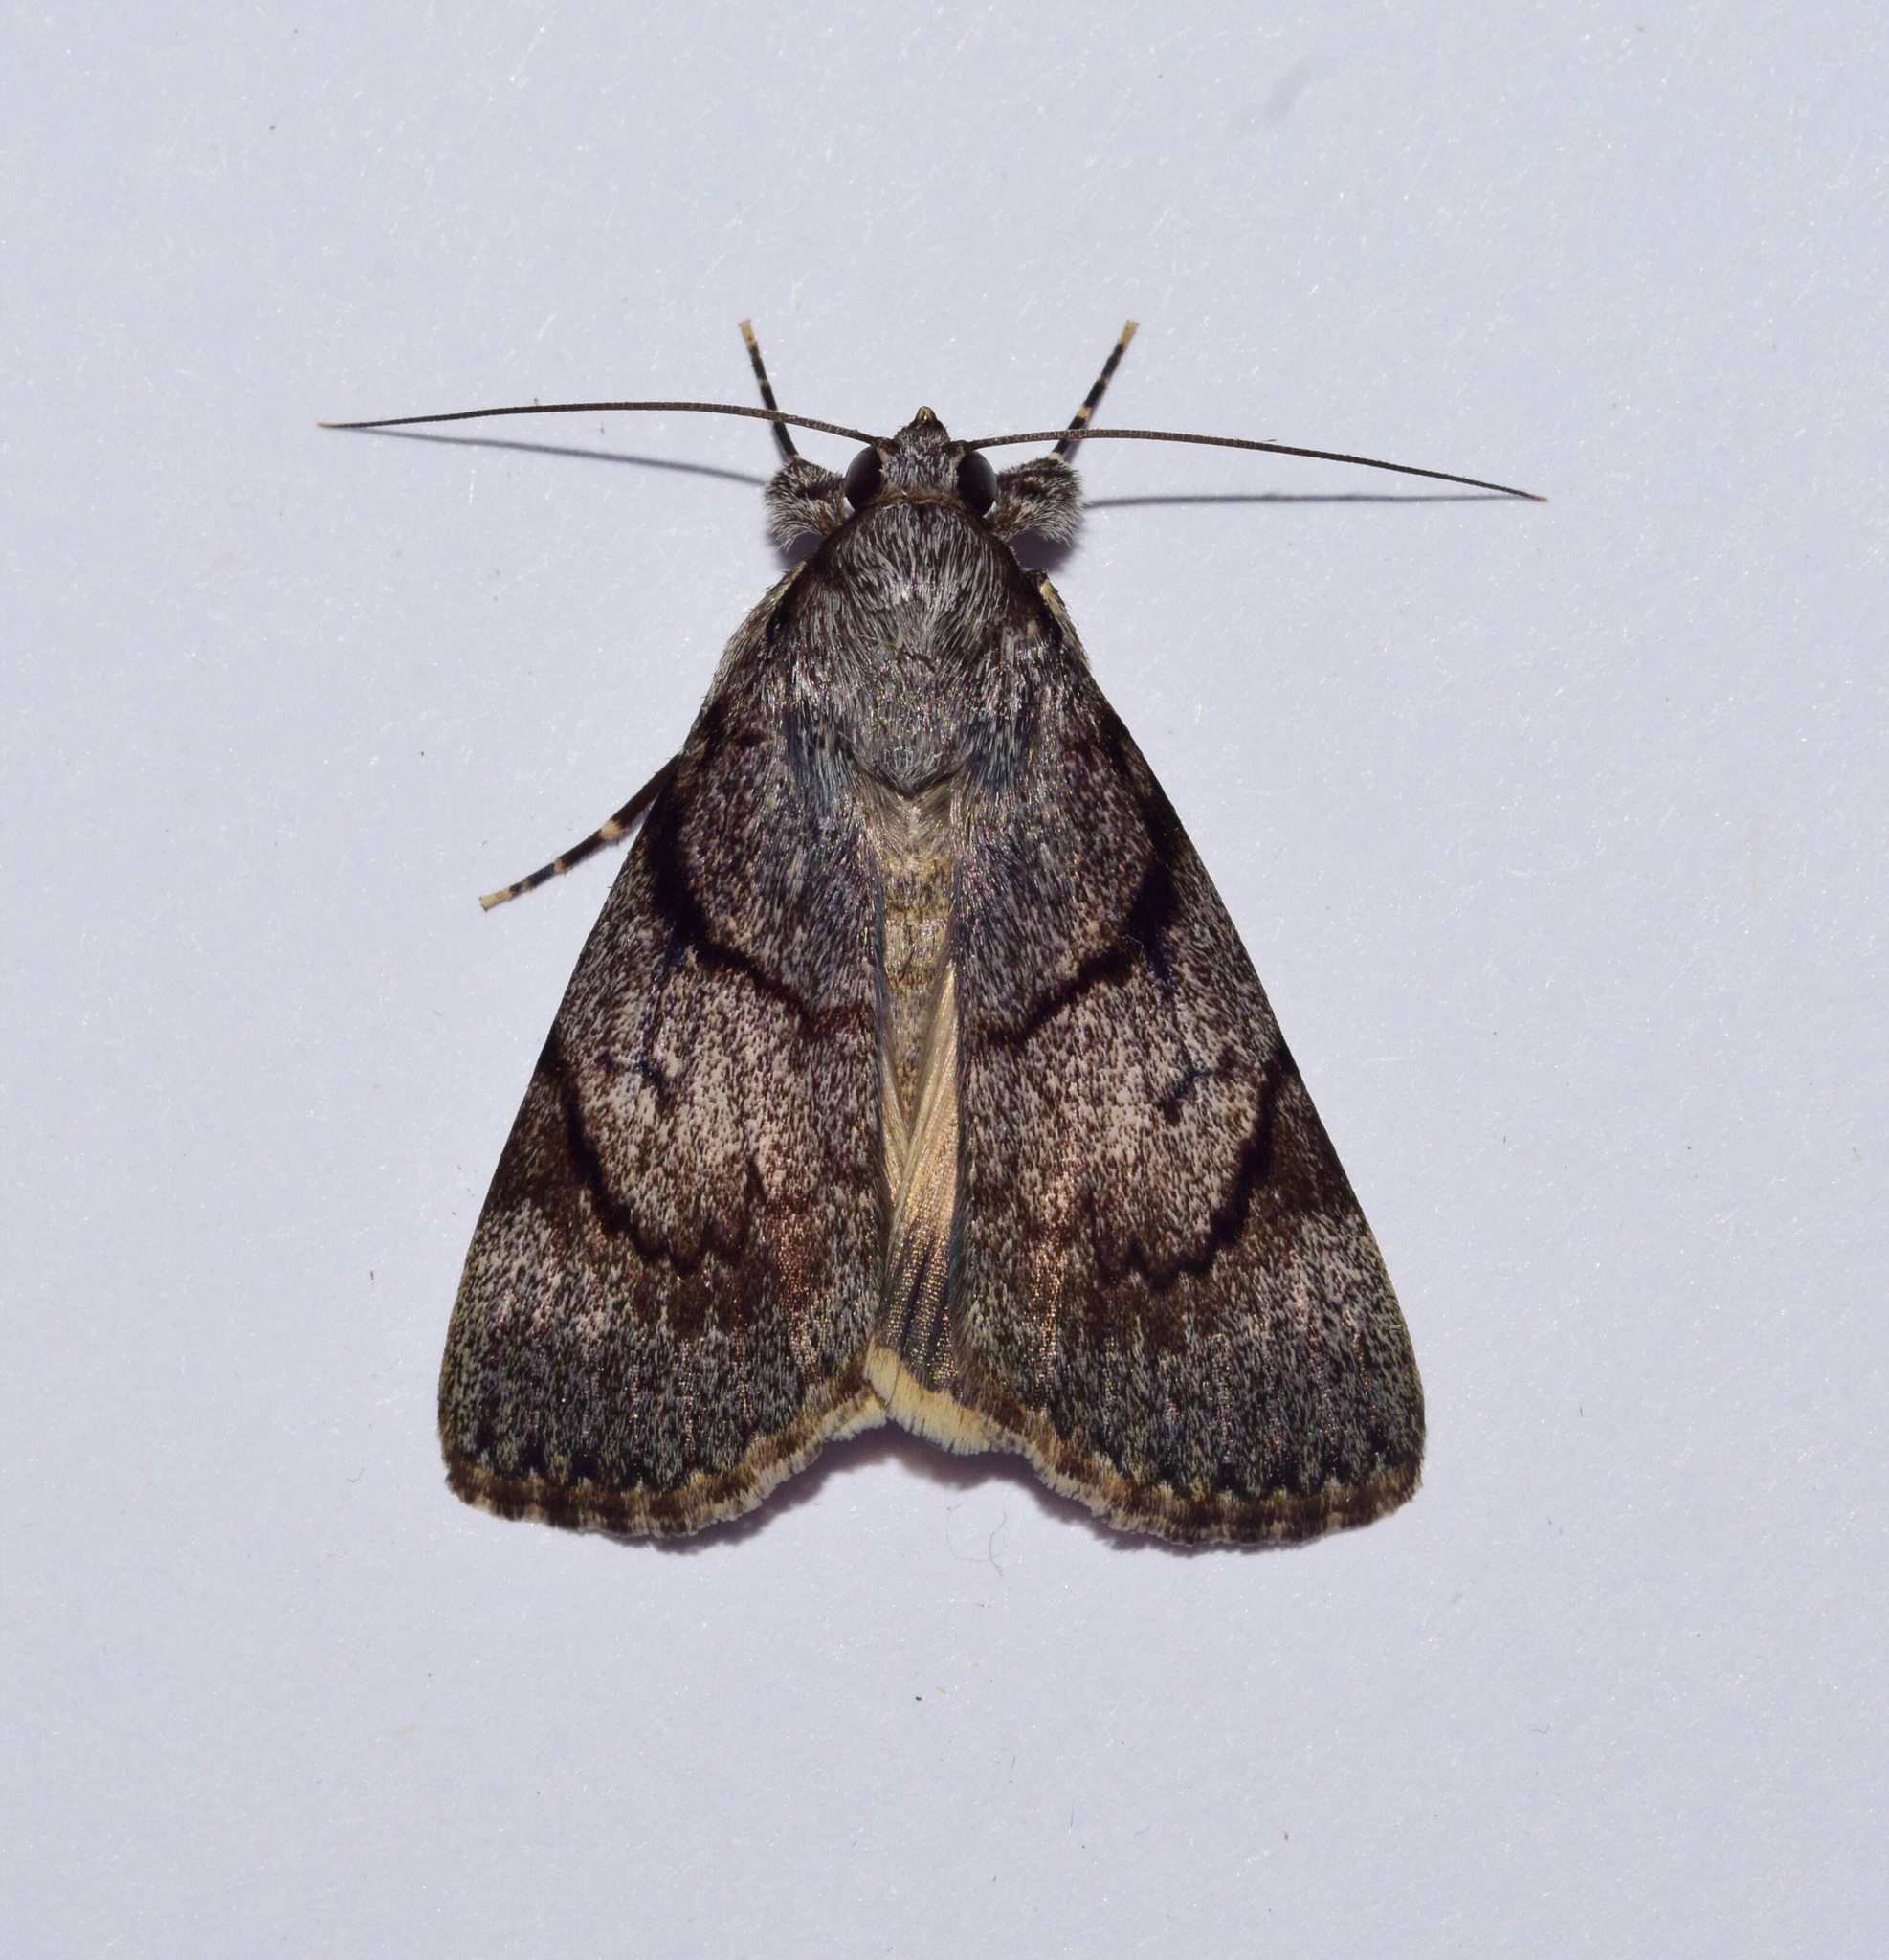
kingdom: Animalia
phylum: Arthropoda
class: Insecta
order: Lepidoptera
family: Erebidae
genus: Audea
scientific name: Audea blochwitzi
